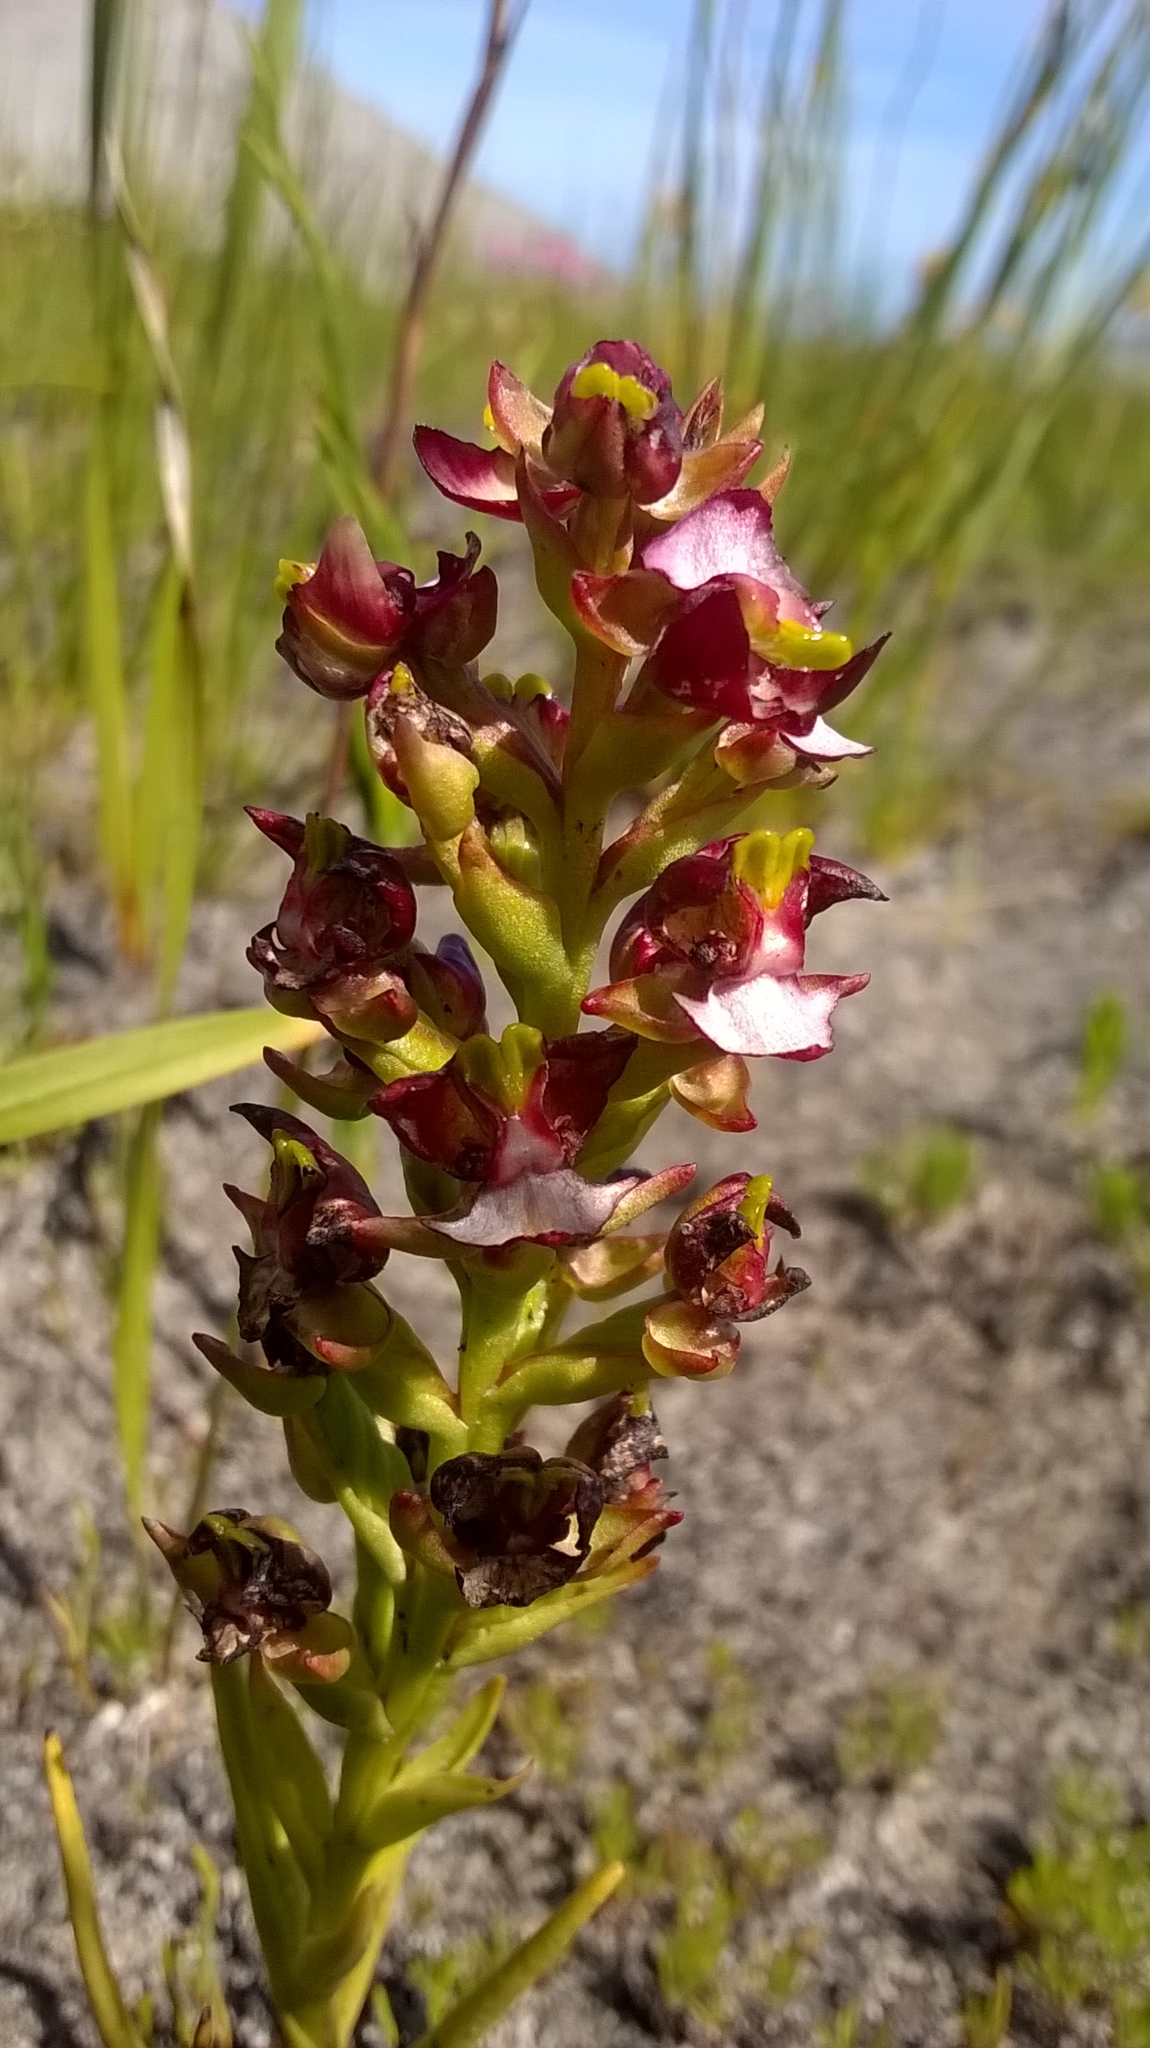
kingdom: Plantae
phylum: Tracheophyta
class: Liliopsida
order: Asparagales
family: Orchidaceae
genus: Evotella
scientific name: Evotella rubiginosa
